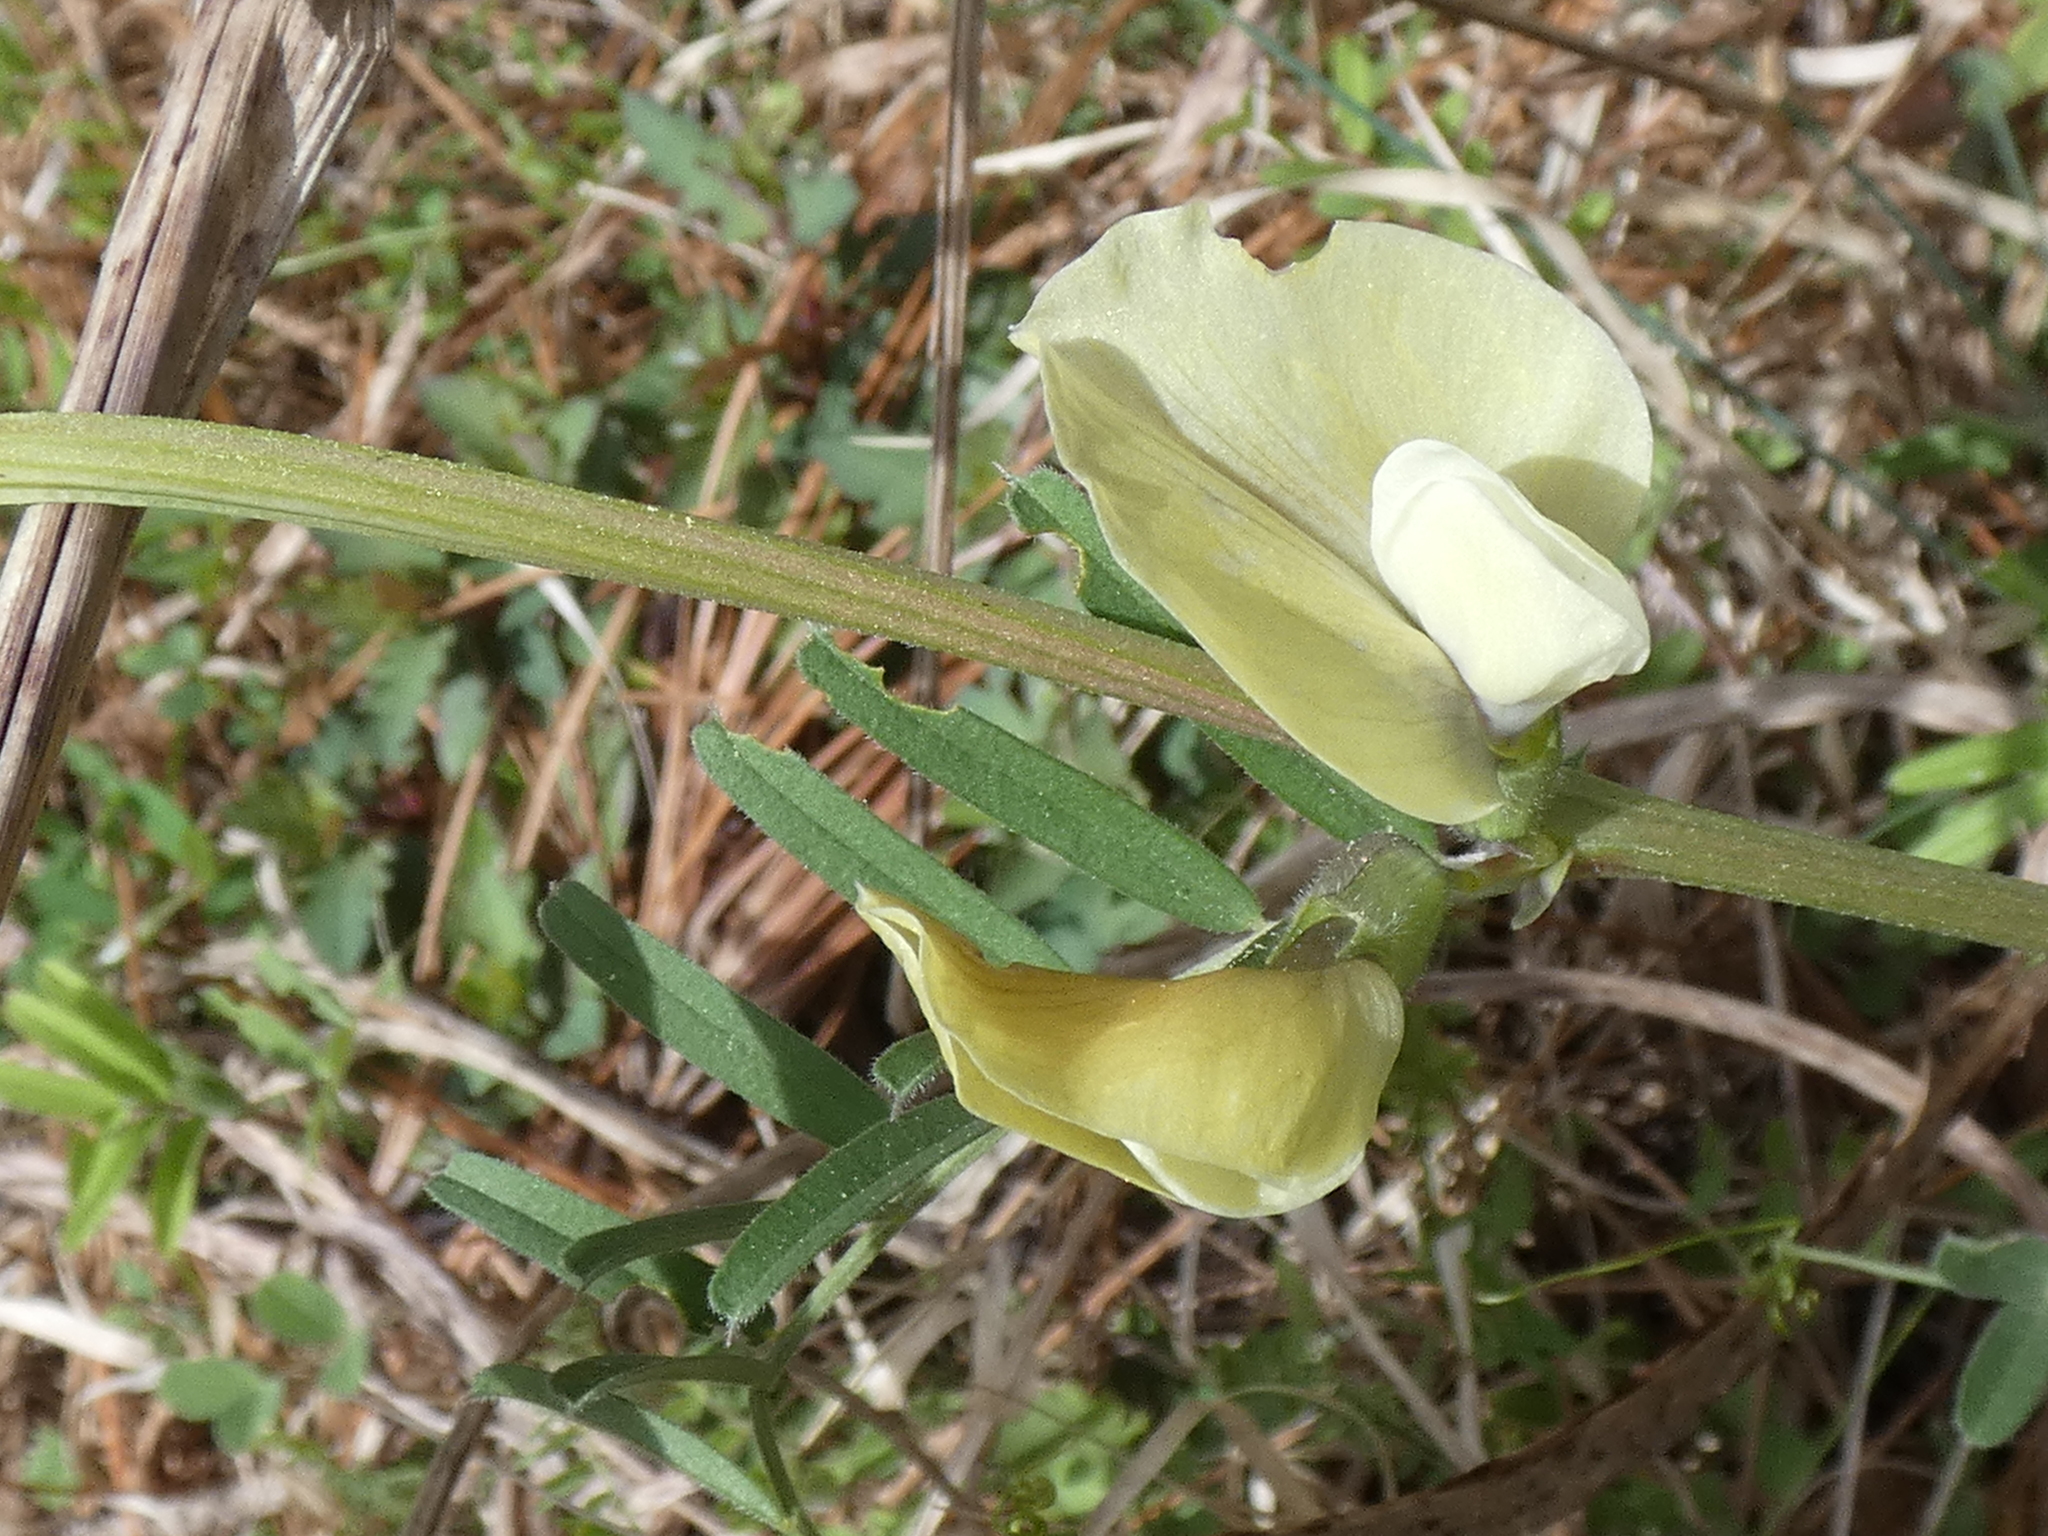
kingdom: Plantae
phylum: Tracheophyta
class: Magnoliopsida
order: Fabales
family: Fabaceae
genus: Vicia
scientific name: Vicia grandiflora
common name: Large yellow vetch
